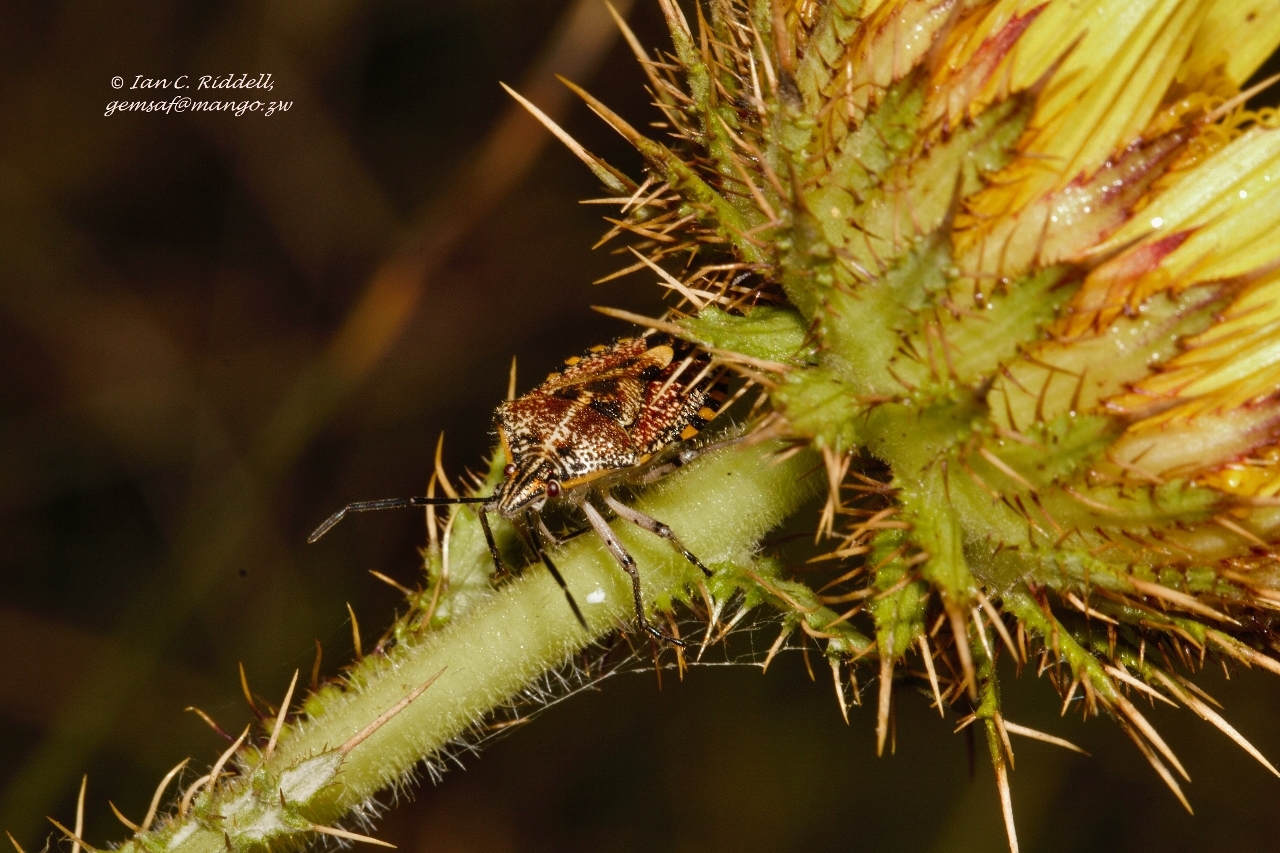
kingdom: Animalia
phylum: Arthropoda
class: Insecta
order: Hemiptera
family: Pentatomidae
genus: Agonoscelis
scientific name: Agonoscelis versicoloratus
